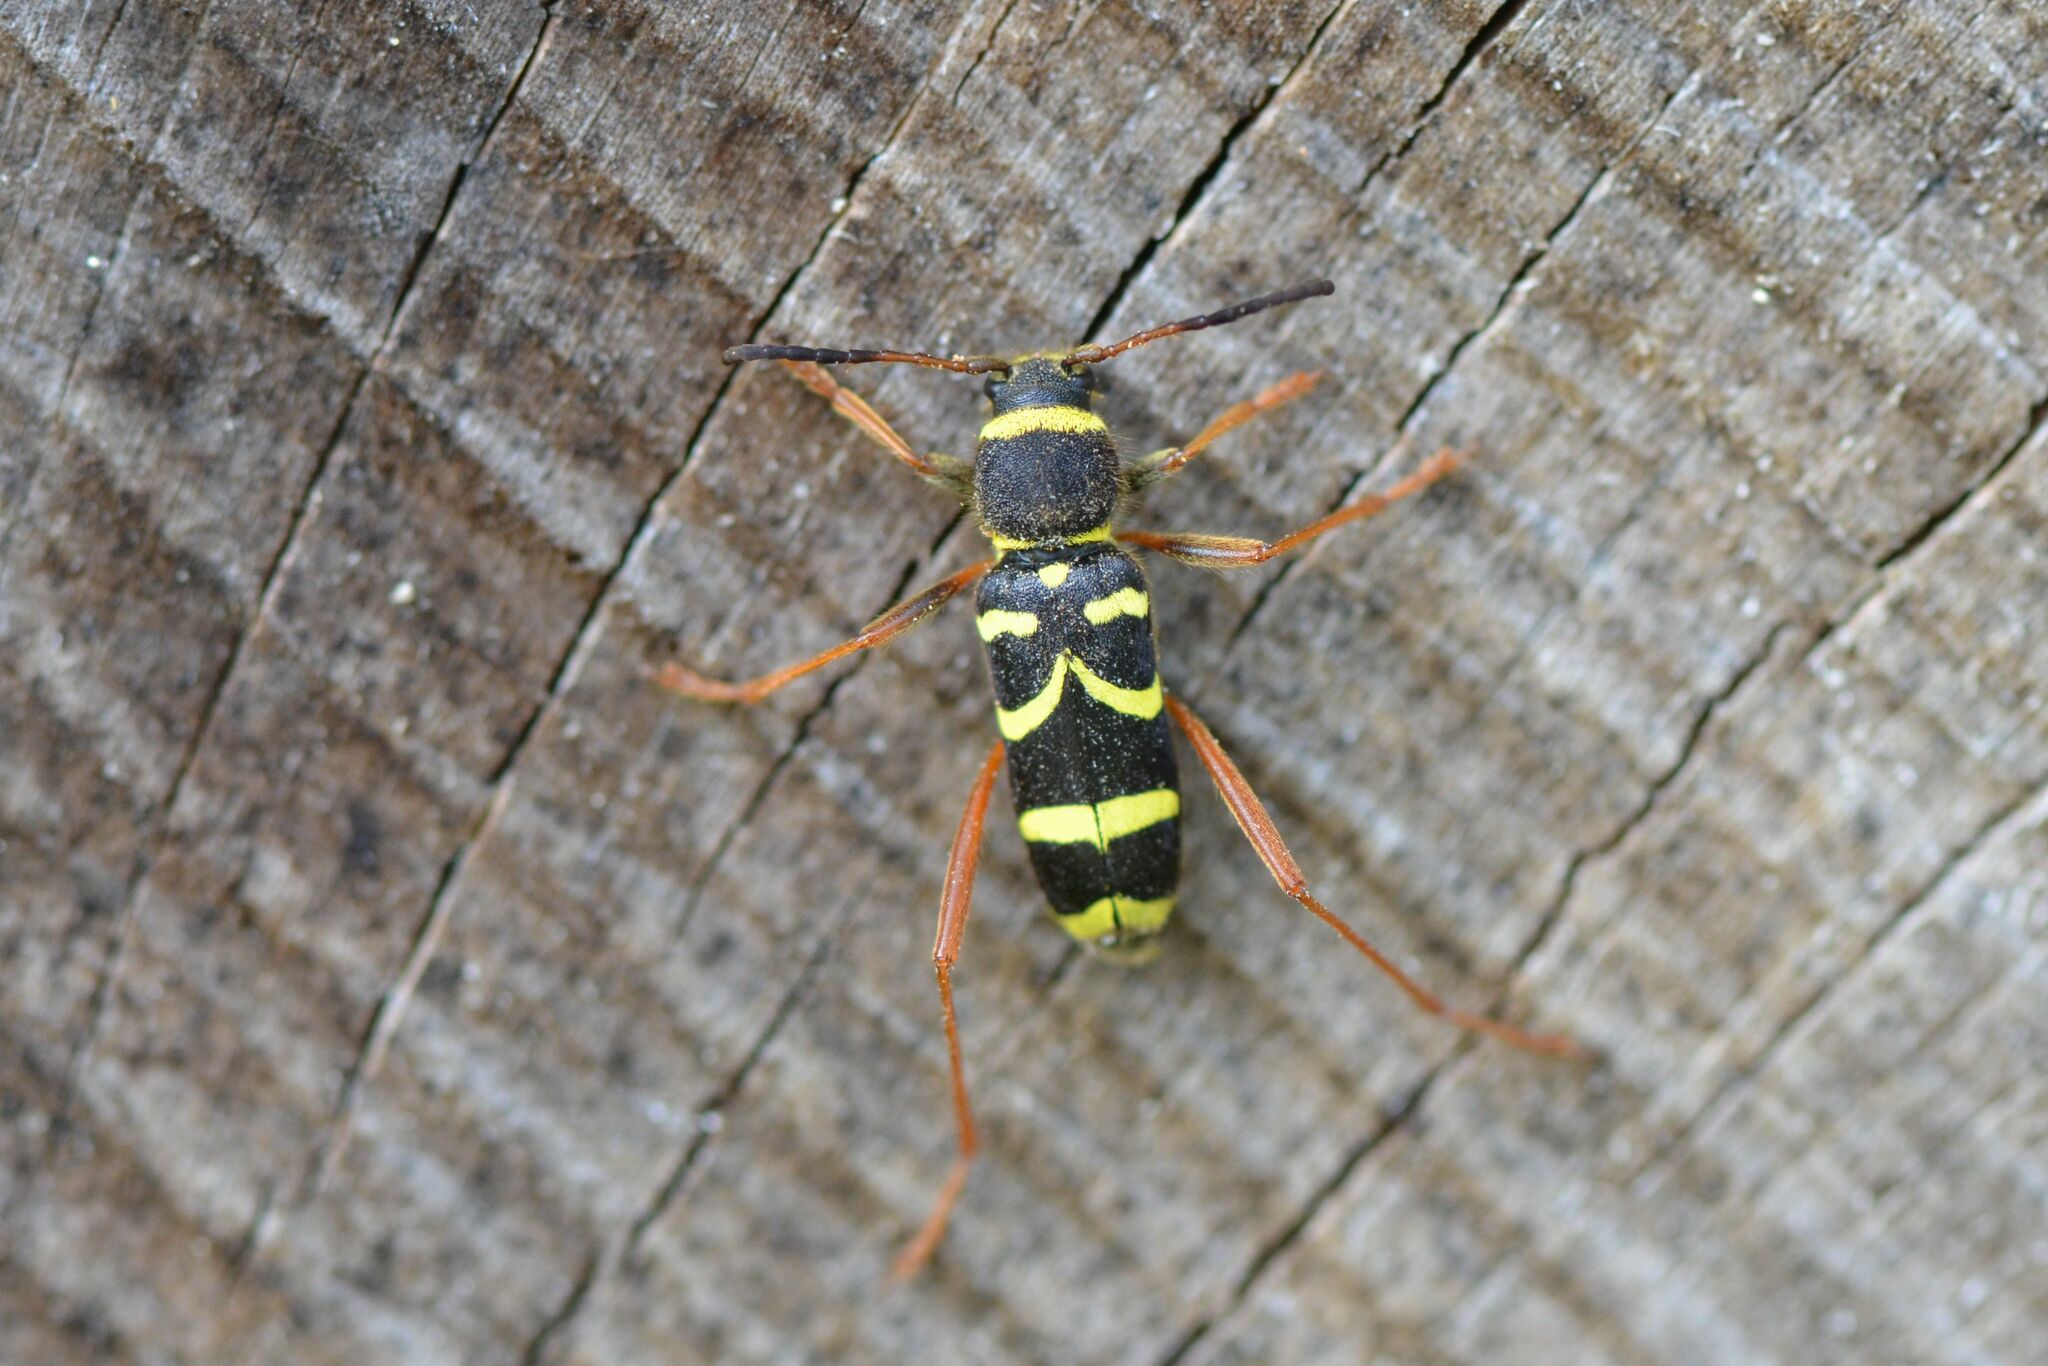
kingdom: Animalia
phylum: Arthropoda
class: Insecta
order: Coleoptera
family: Cerambycidae
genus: Clytus
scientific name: Clytus arietis
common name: Wasp beetle
